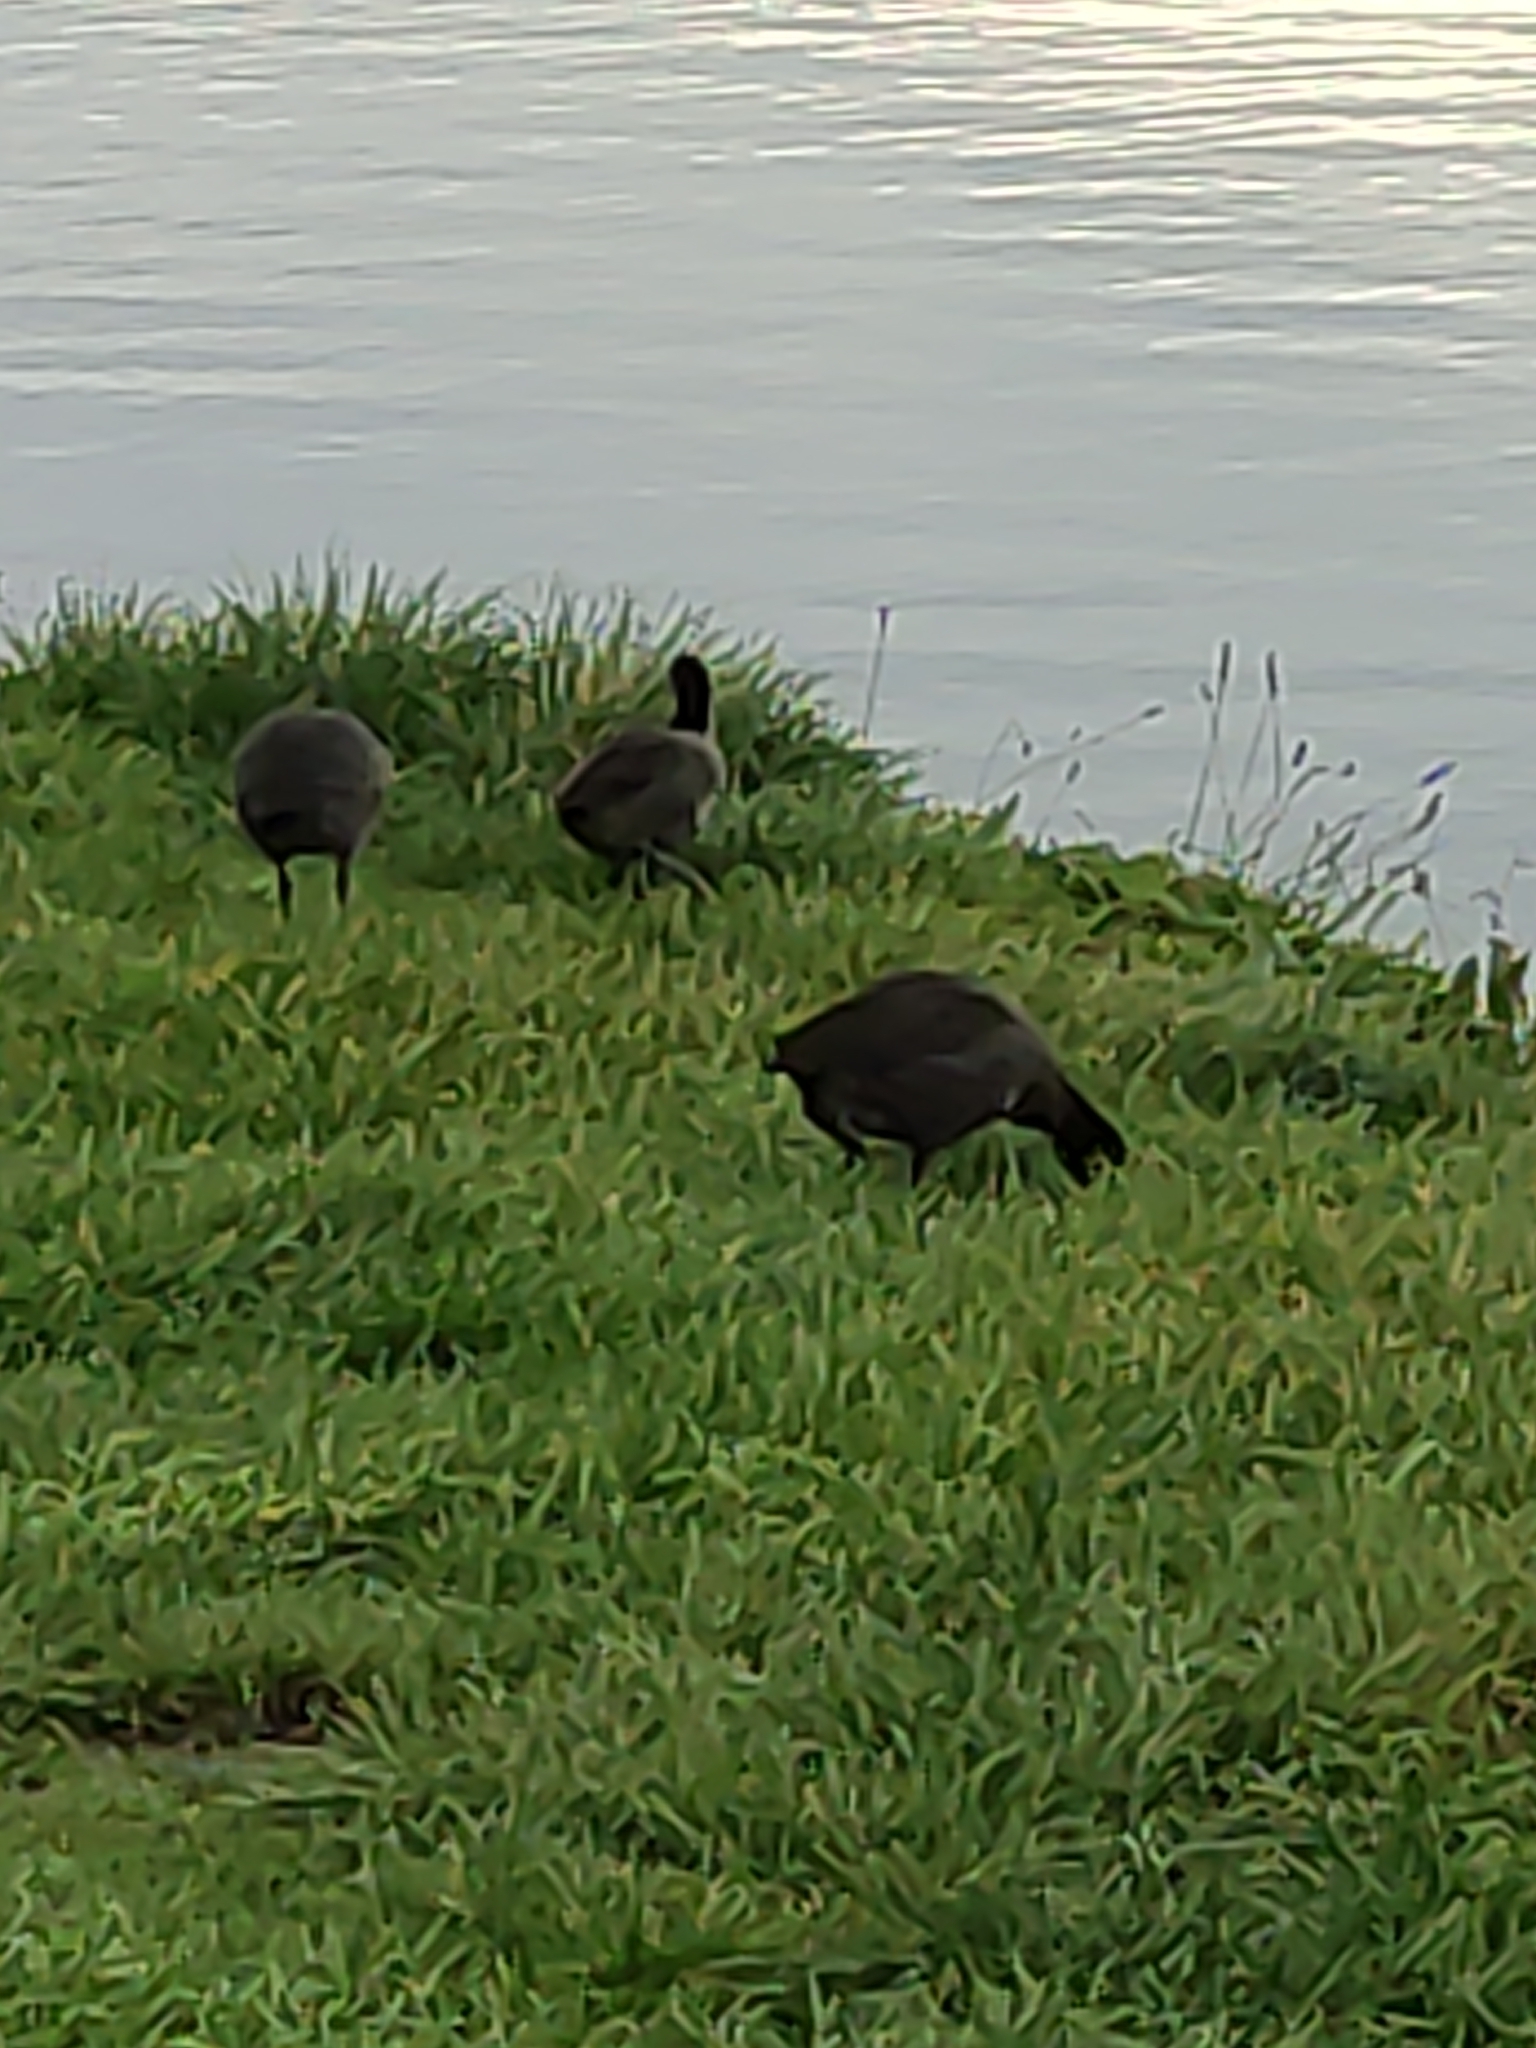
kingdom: Animalia
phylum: Chordata
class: Aves
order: Gruiformes
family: Rallidae
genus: Fulica
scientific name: Fulica atra
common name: Eurasian coot
